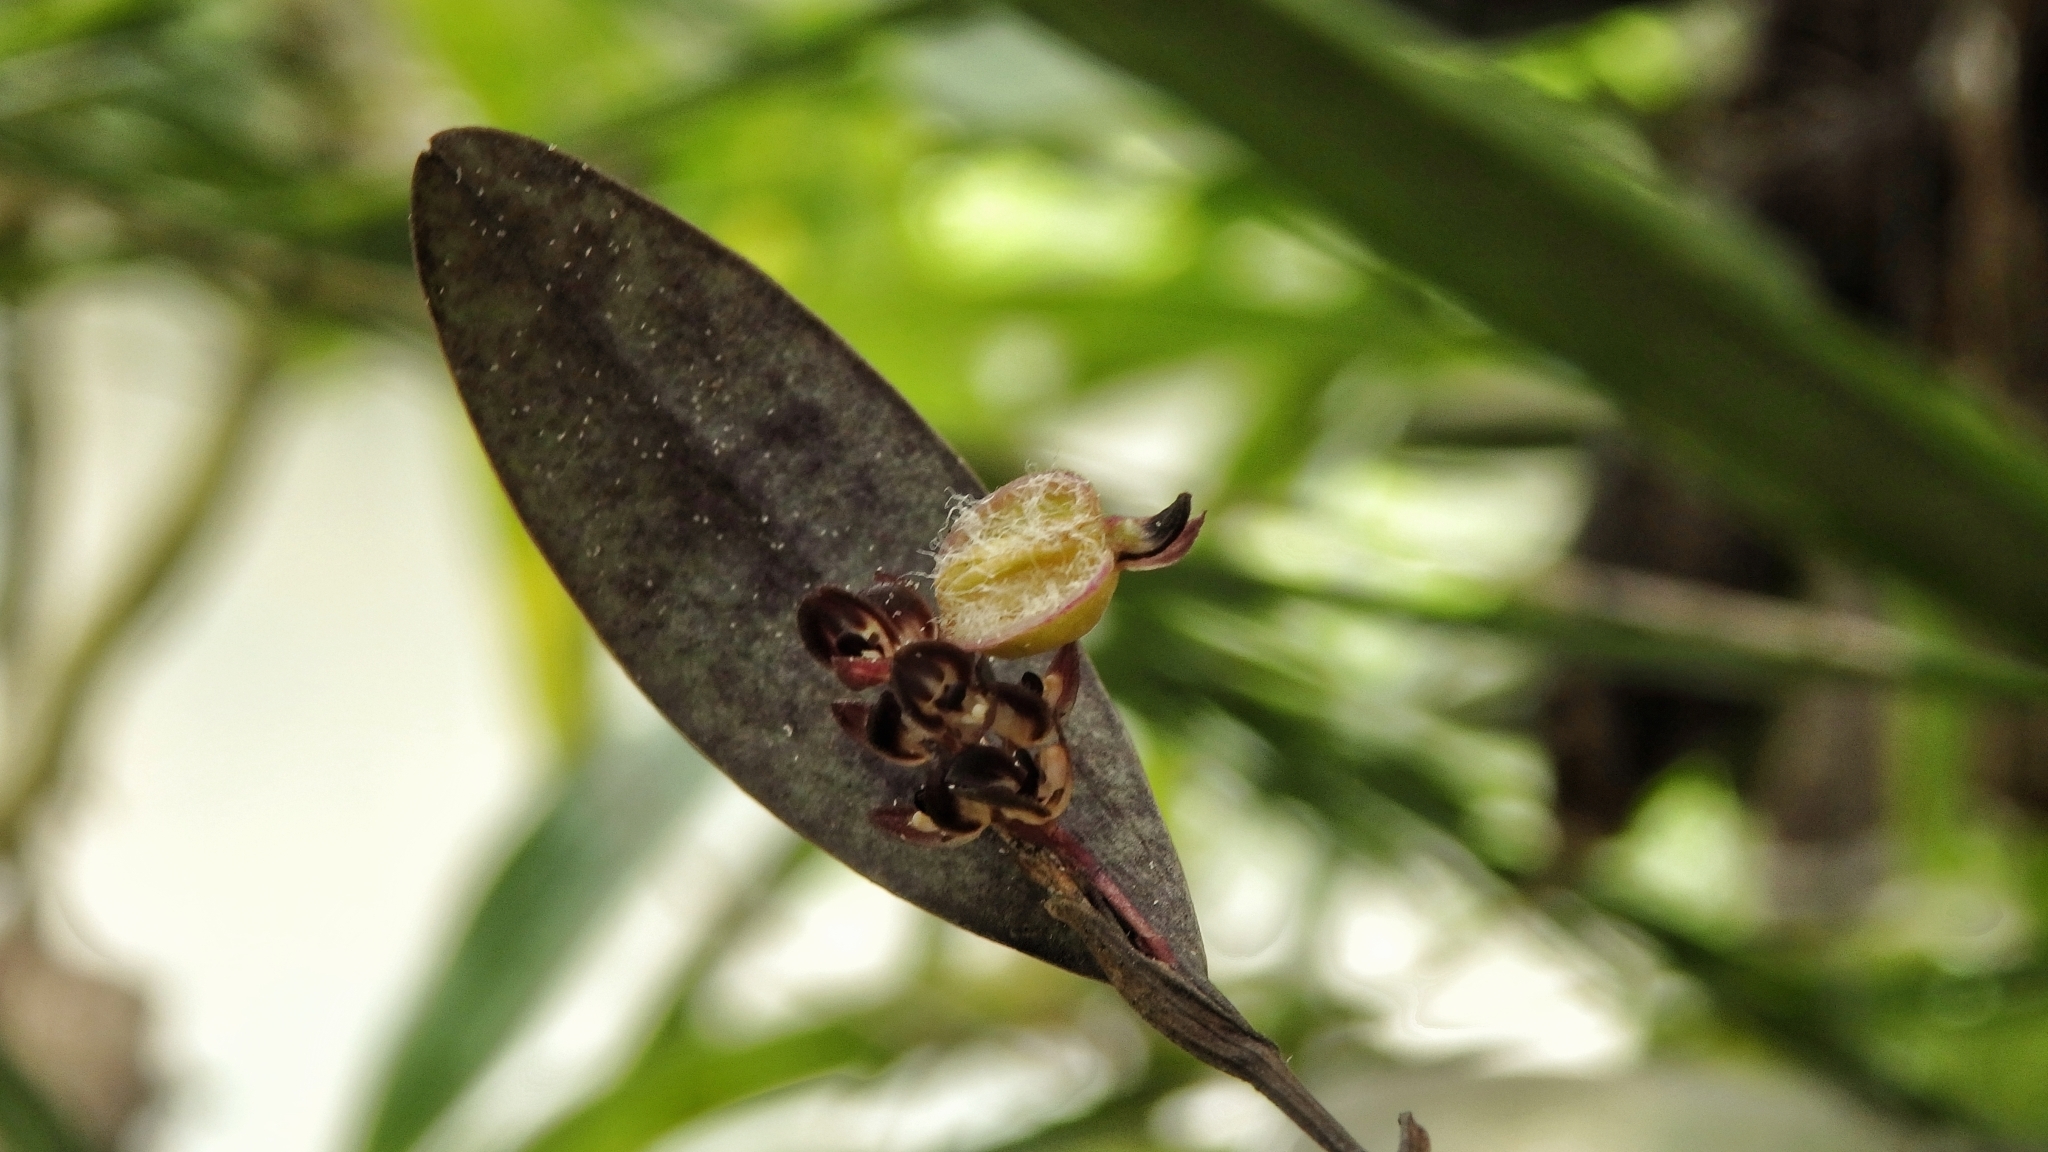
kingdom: Plantae
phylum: Tracheophyta
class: Liliopsida
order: Asparagales
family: Orchidaceae
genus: Trichosalpinx
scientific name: Trichosalpinx ciliaris
